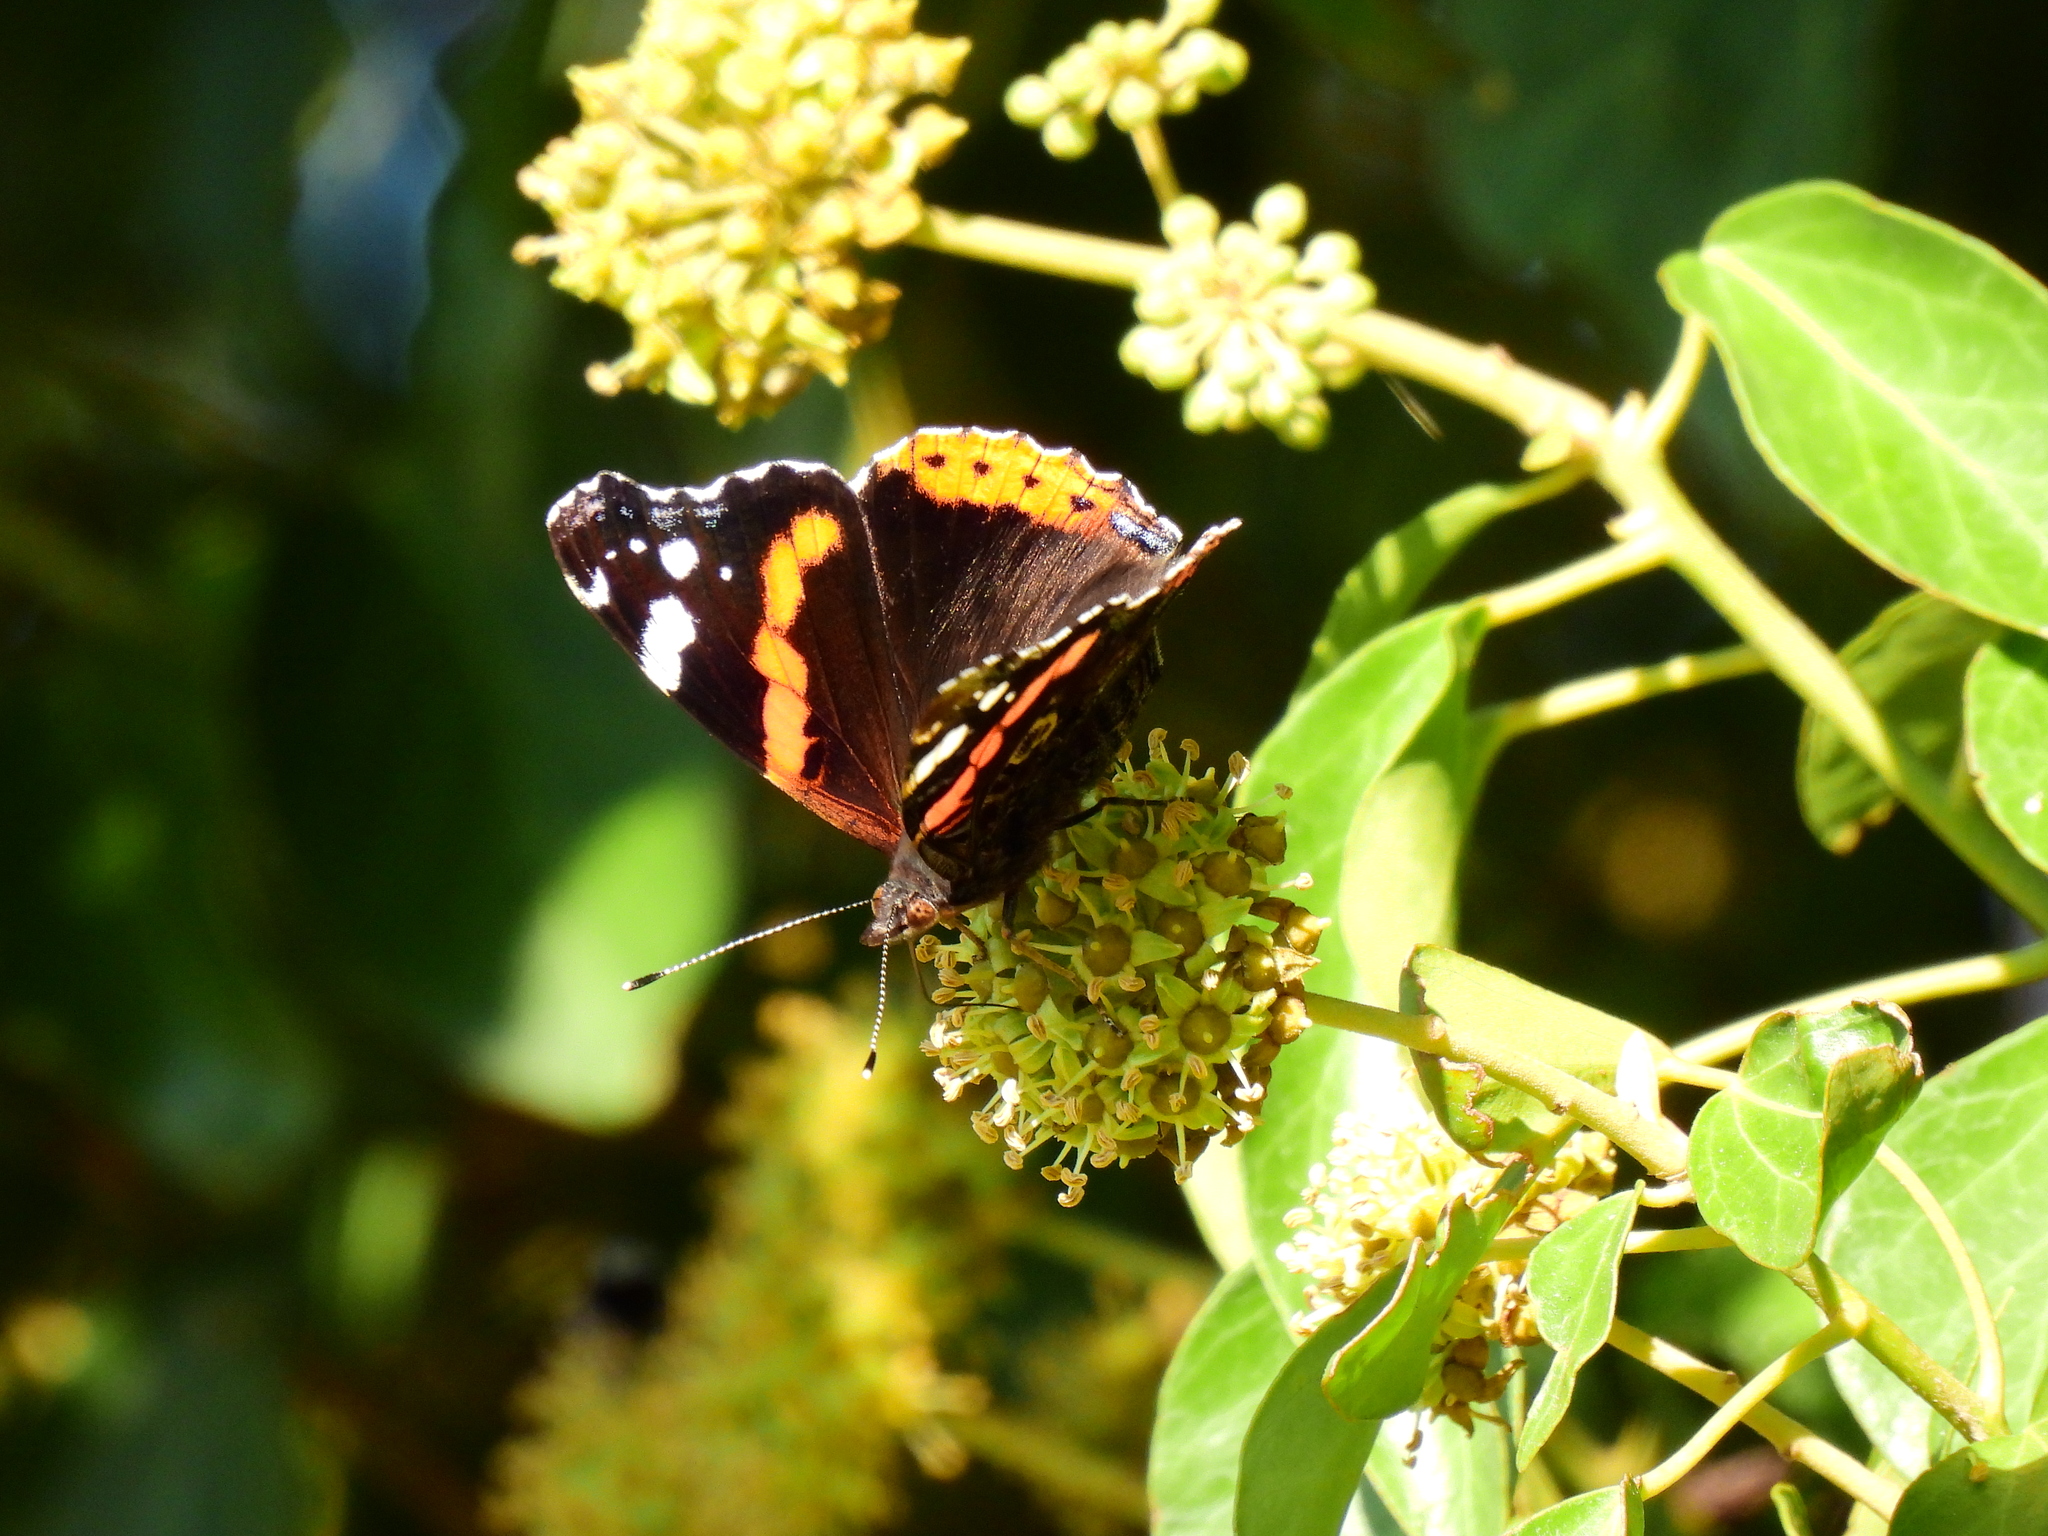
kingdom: Animalia
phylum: Arthropoda
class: Insecta
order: Lepidoptera
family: Nymphalidae
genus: Vanessa
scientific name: Vanessa atalanta
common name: Red admiral
